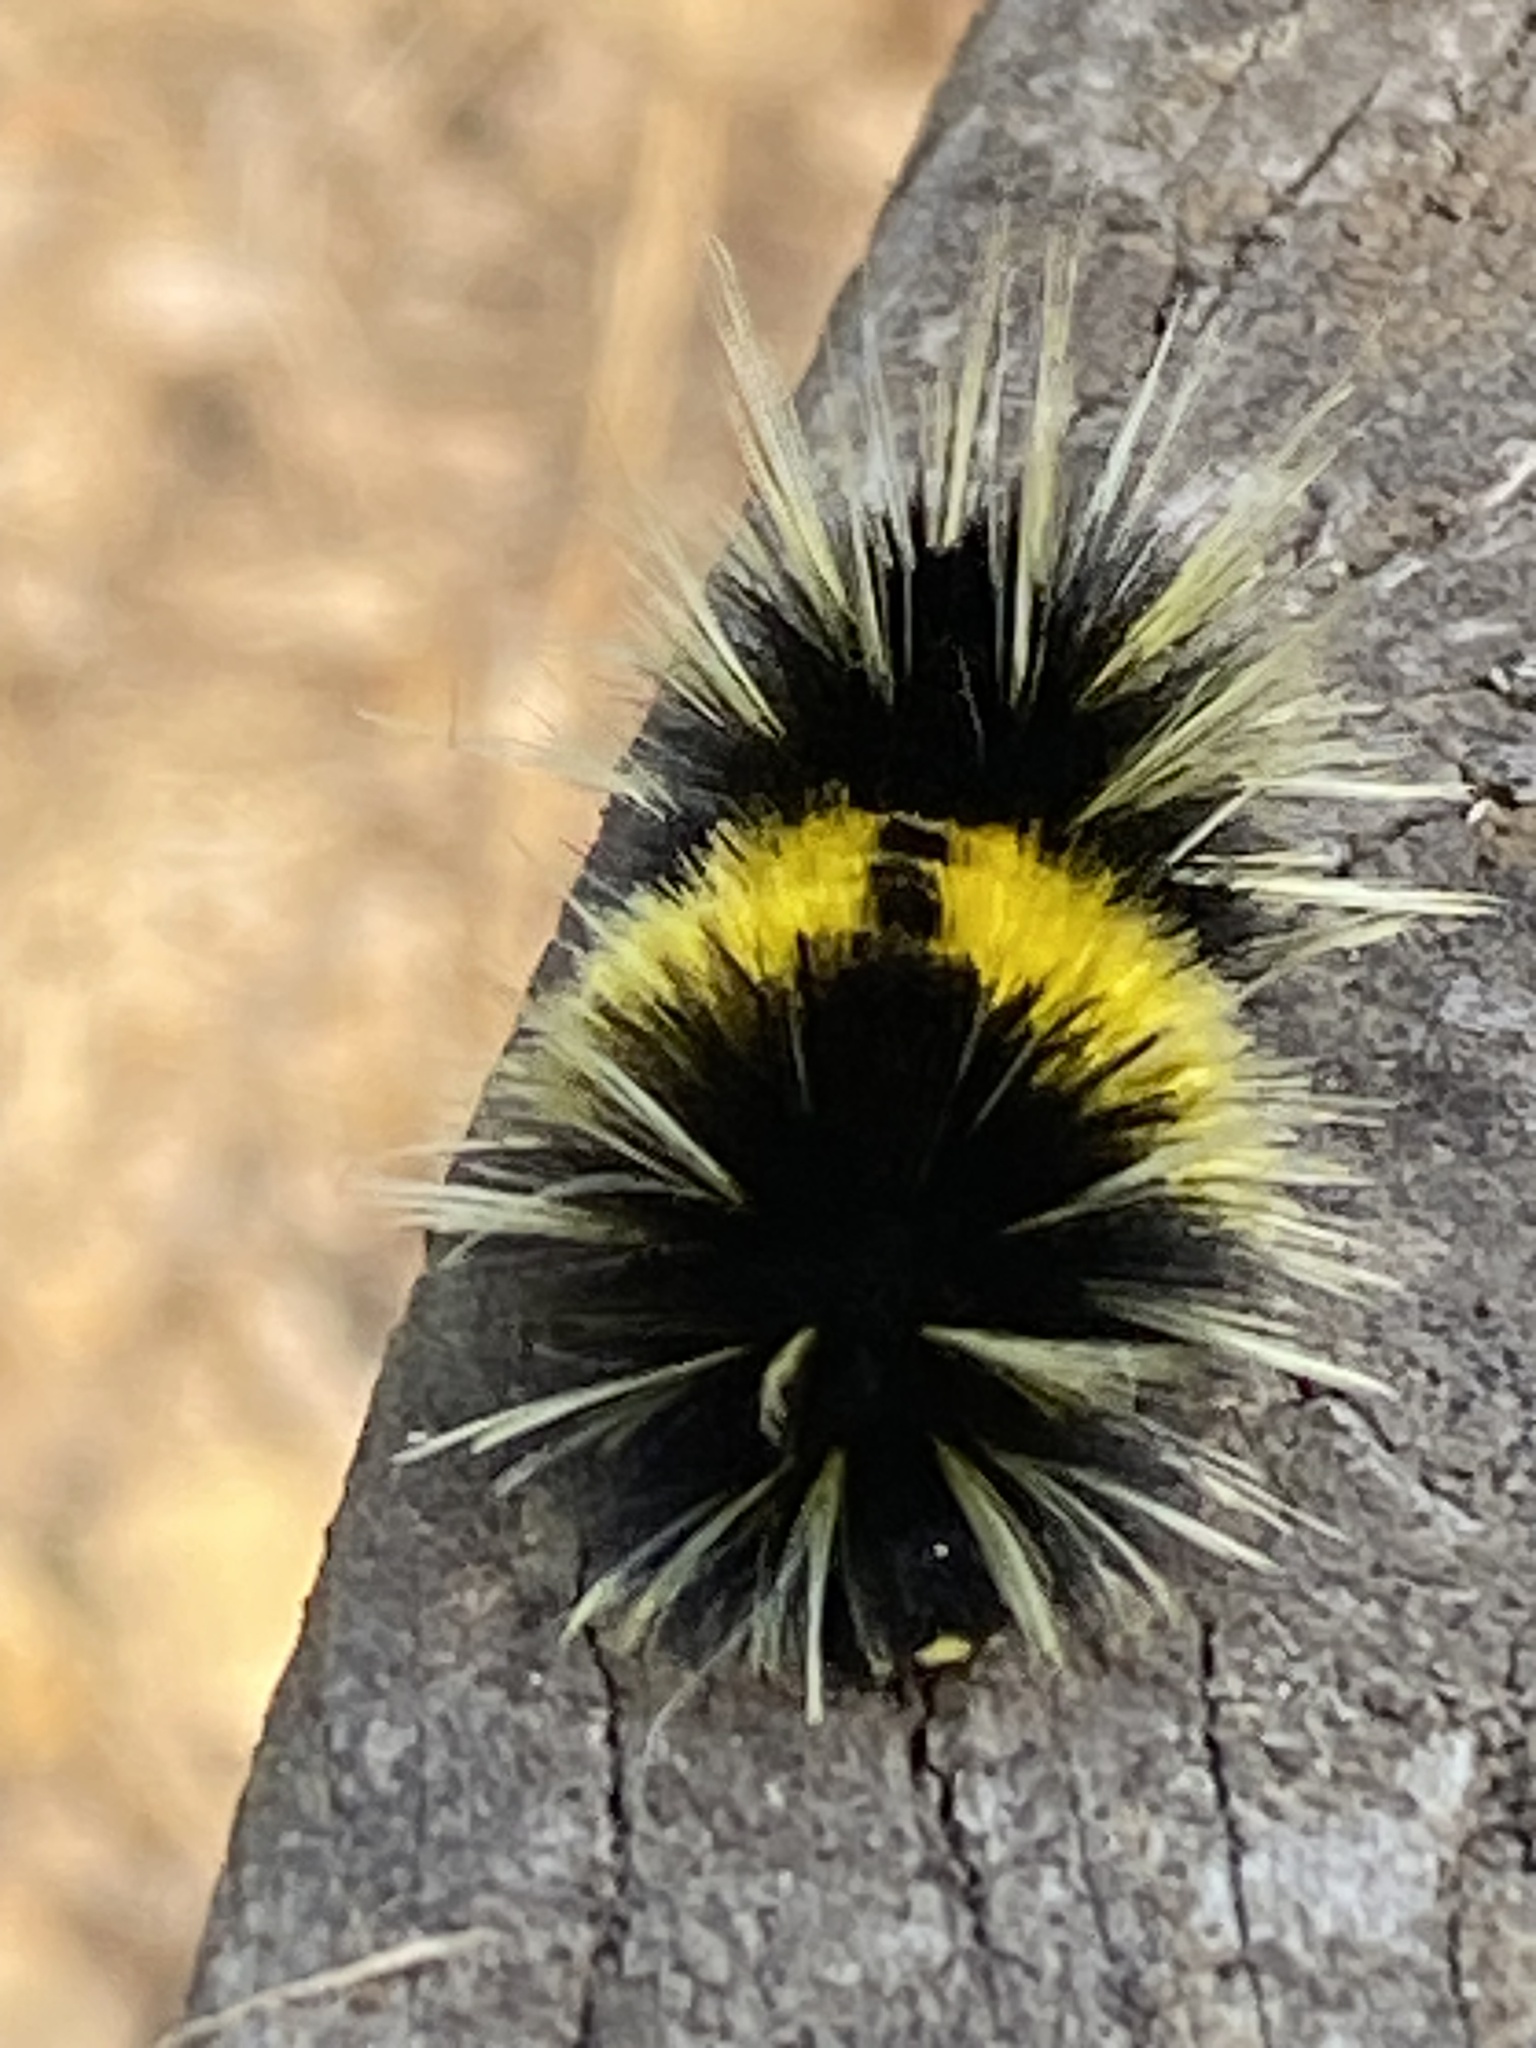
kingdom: Animalia
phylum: Arthropoda
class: Insecta
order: Lepidoptera
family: Erebidae
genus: Lophocampa
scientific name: Lophocampa maculata
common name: Spotted tussock moth
